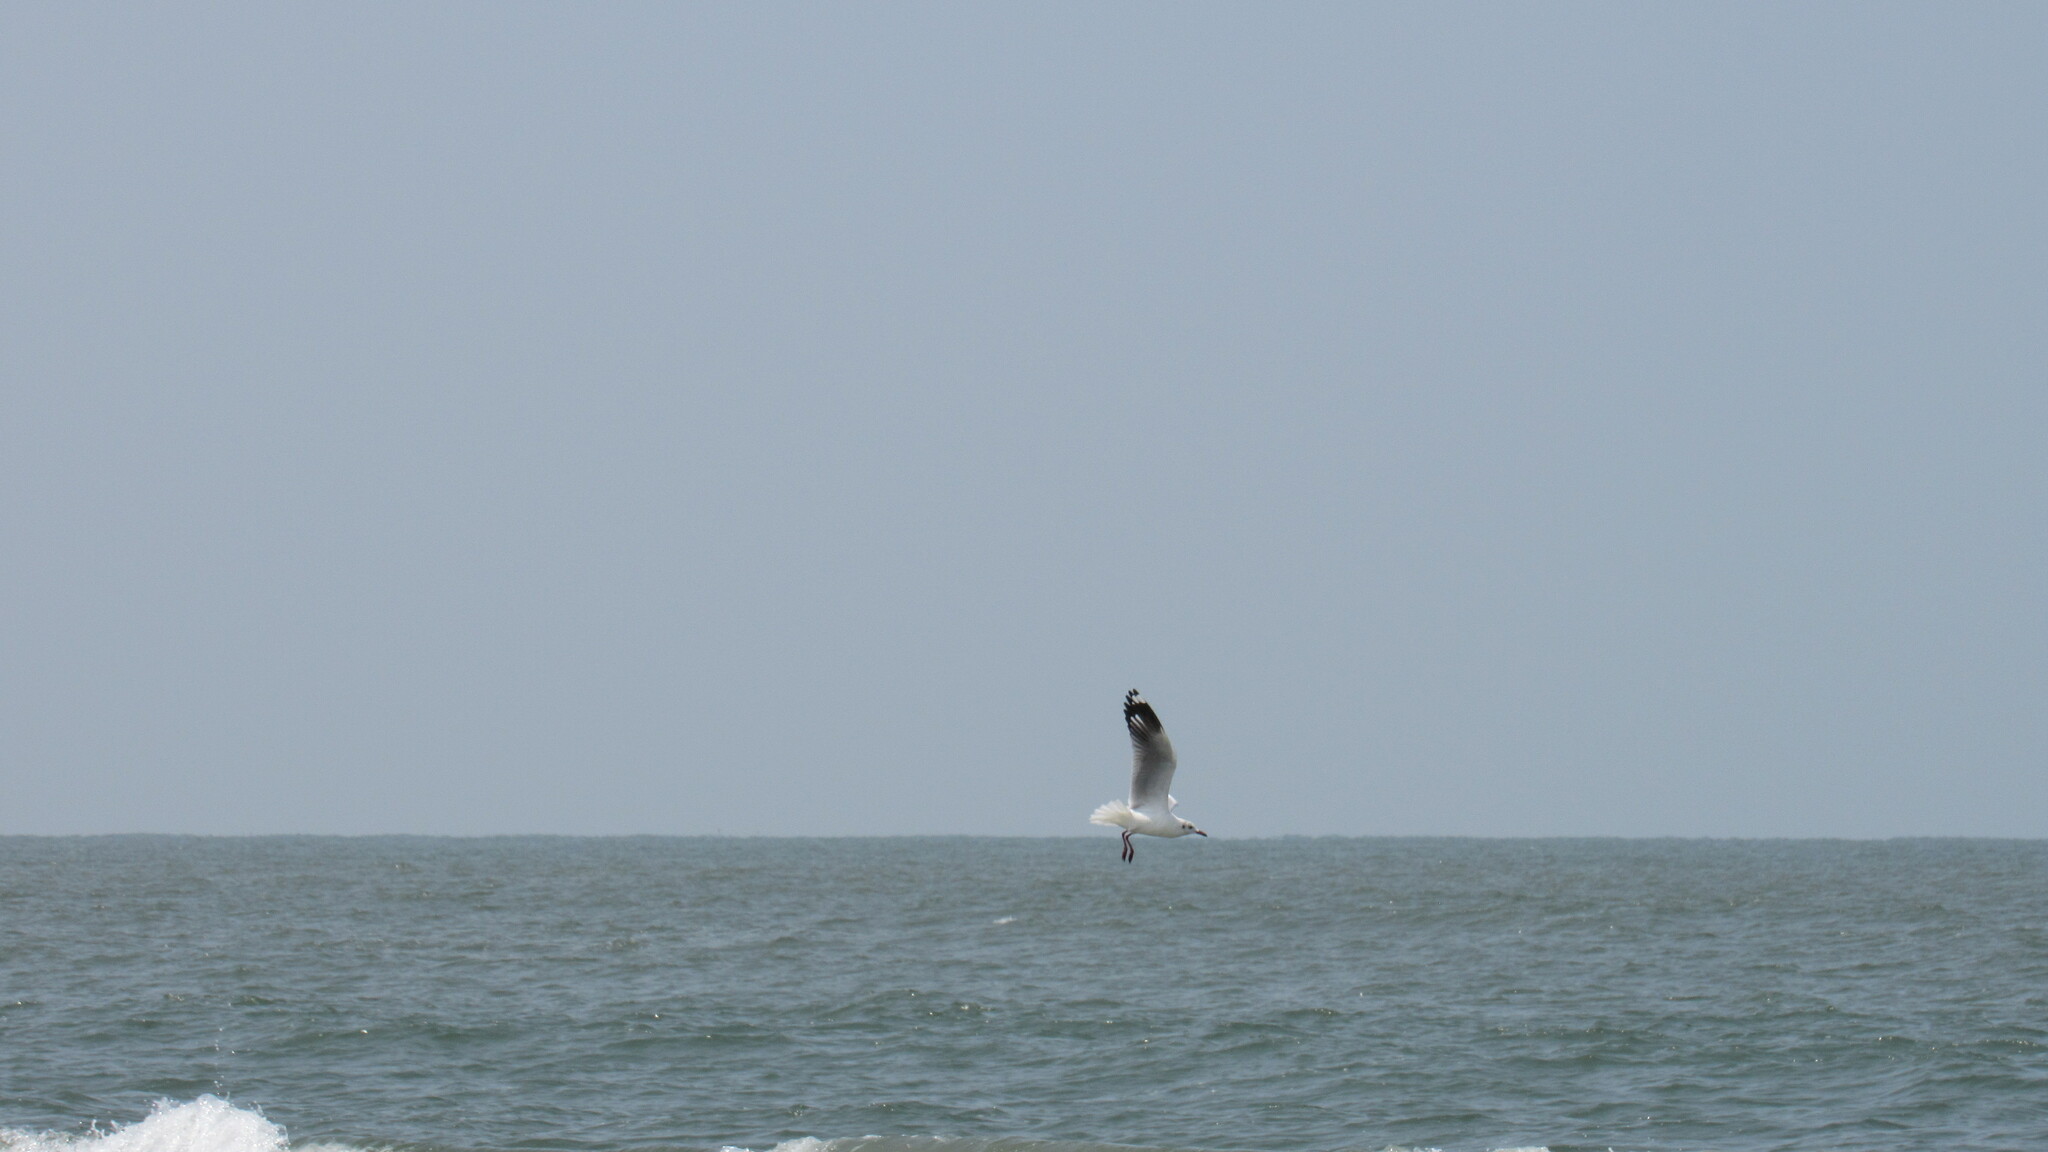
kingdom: Animalia
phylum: Chordata
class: Aves
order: Charadriiformes
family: Laridae
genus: Chroicocephalus
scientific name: Chroicocephalus brunnicephalus
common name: Brown-headed gull
